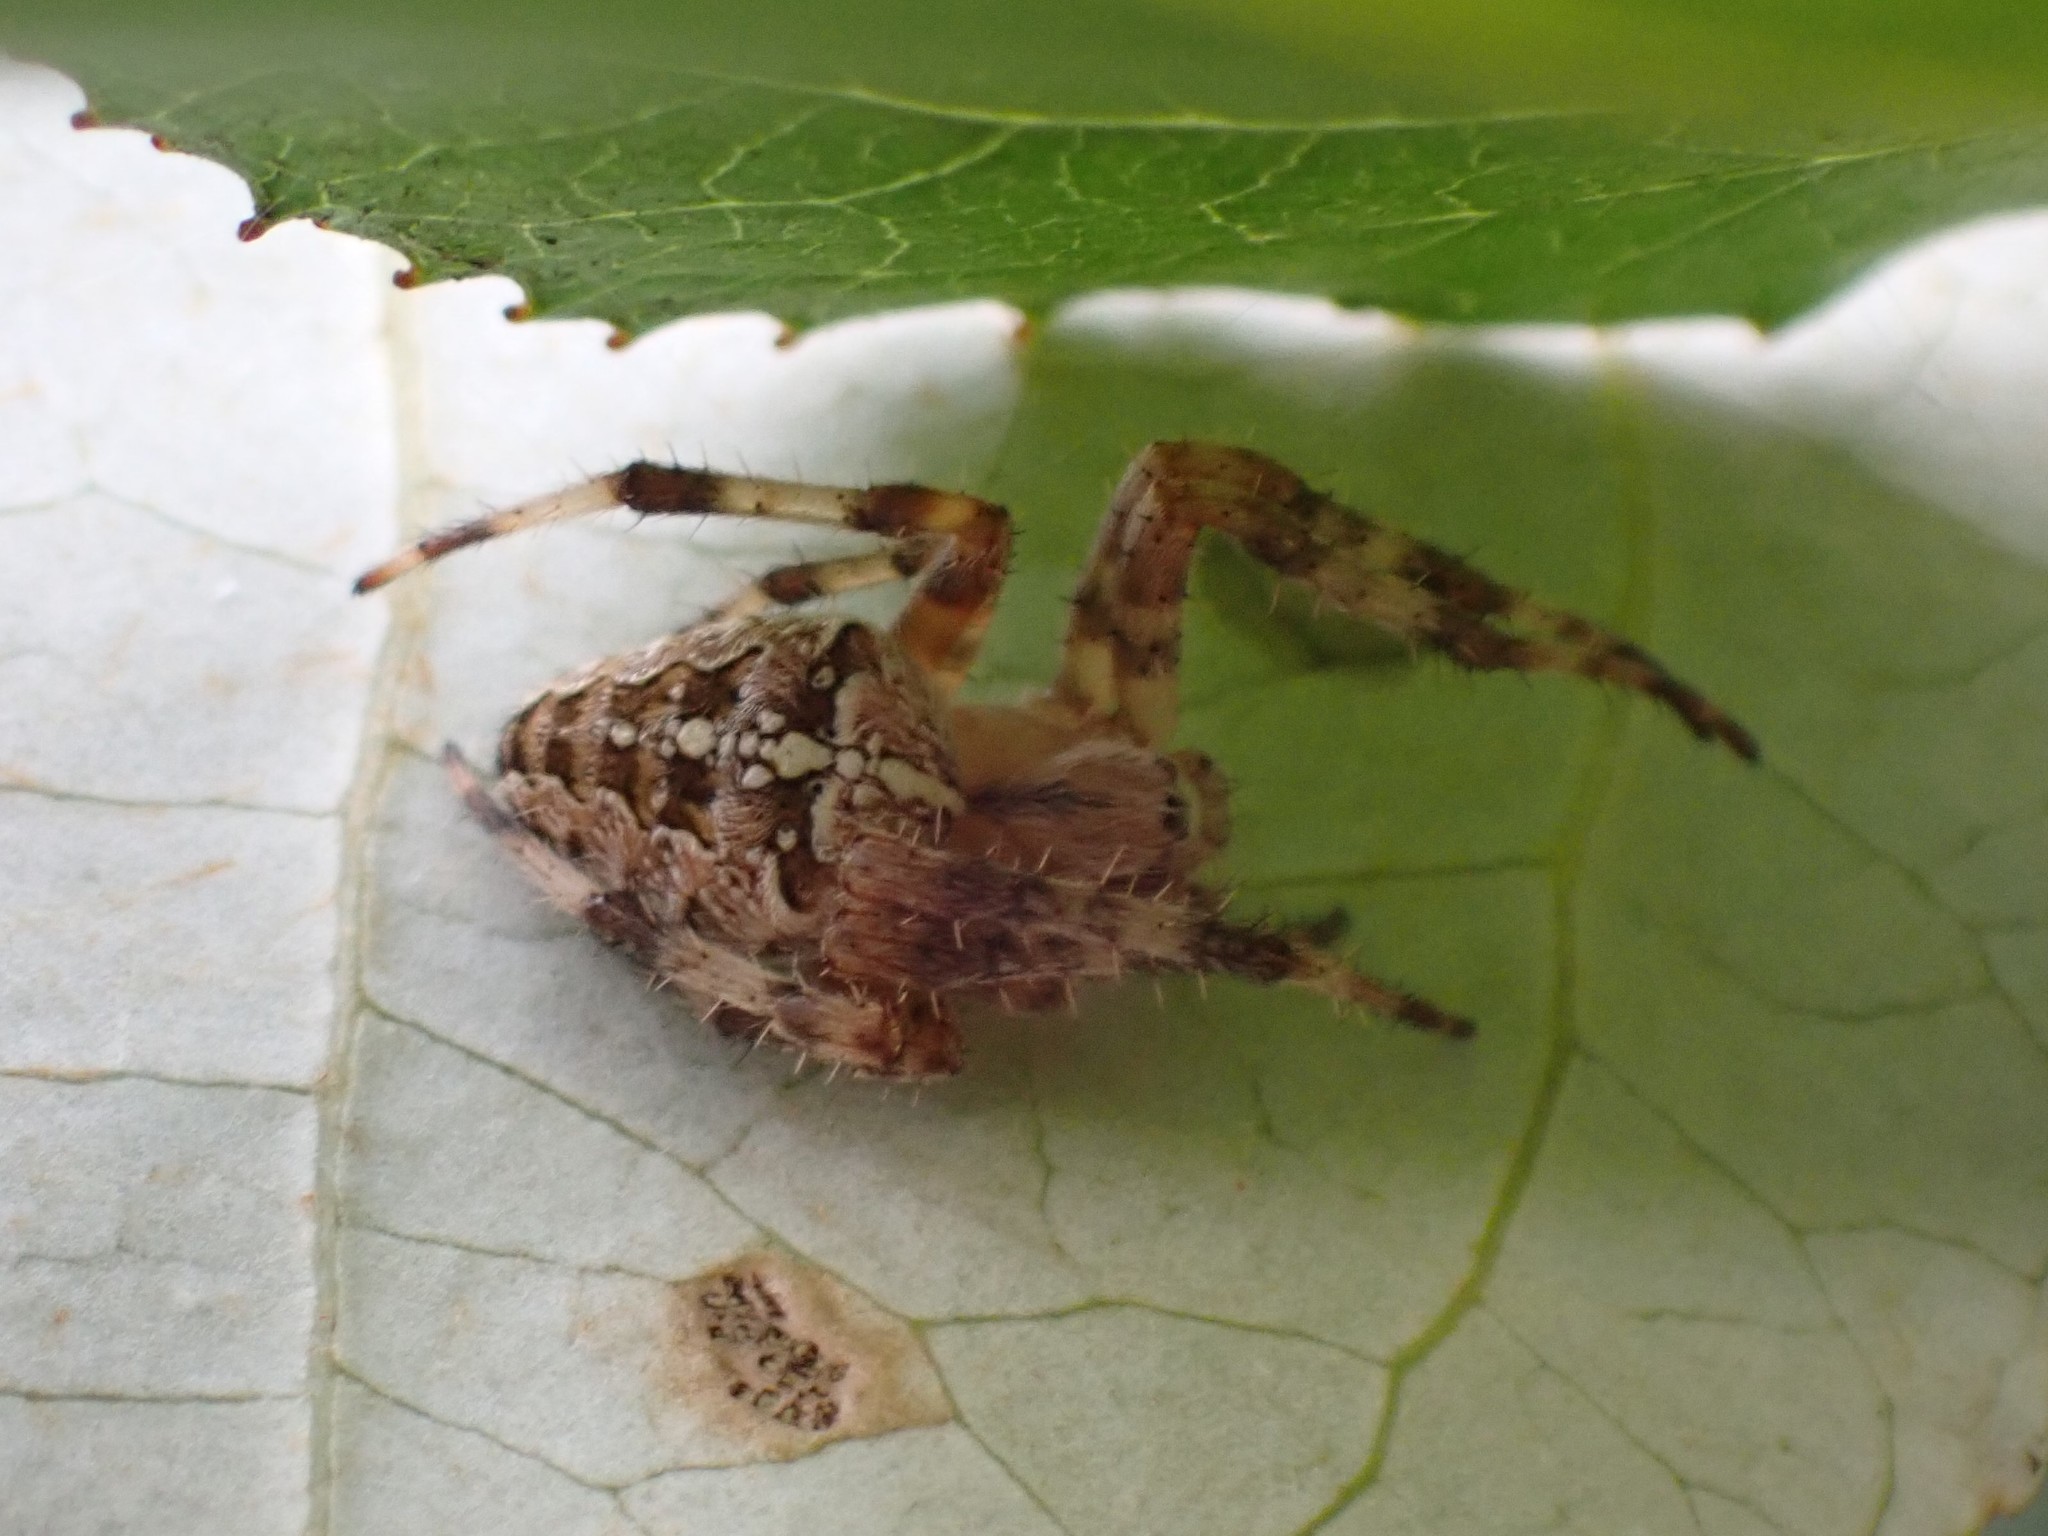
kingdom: Animalia
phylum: Arthropoda
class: Arachnida
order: Araneae
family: Araneidae
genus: Araneus
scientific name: Araneus diadematus
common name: Cross orbweaver
